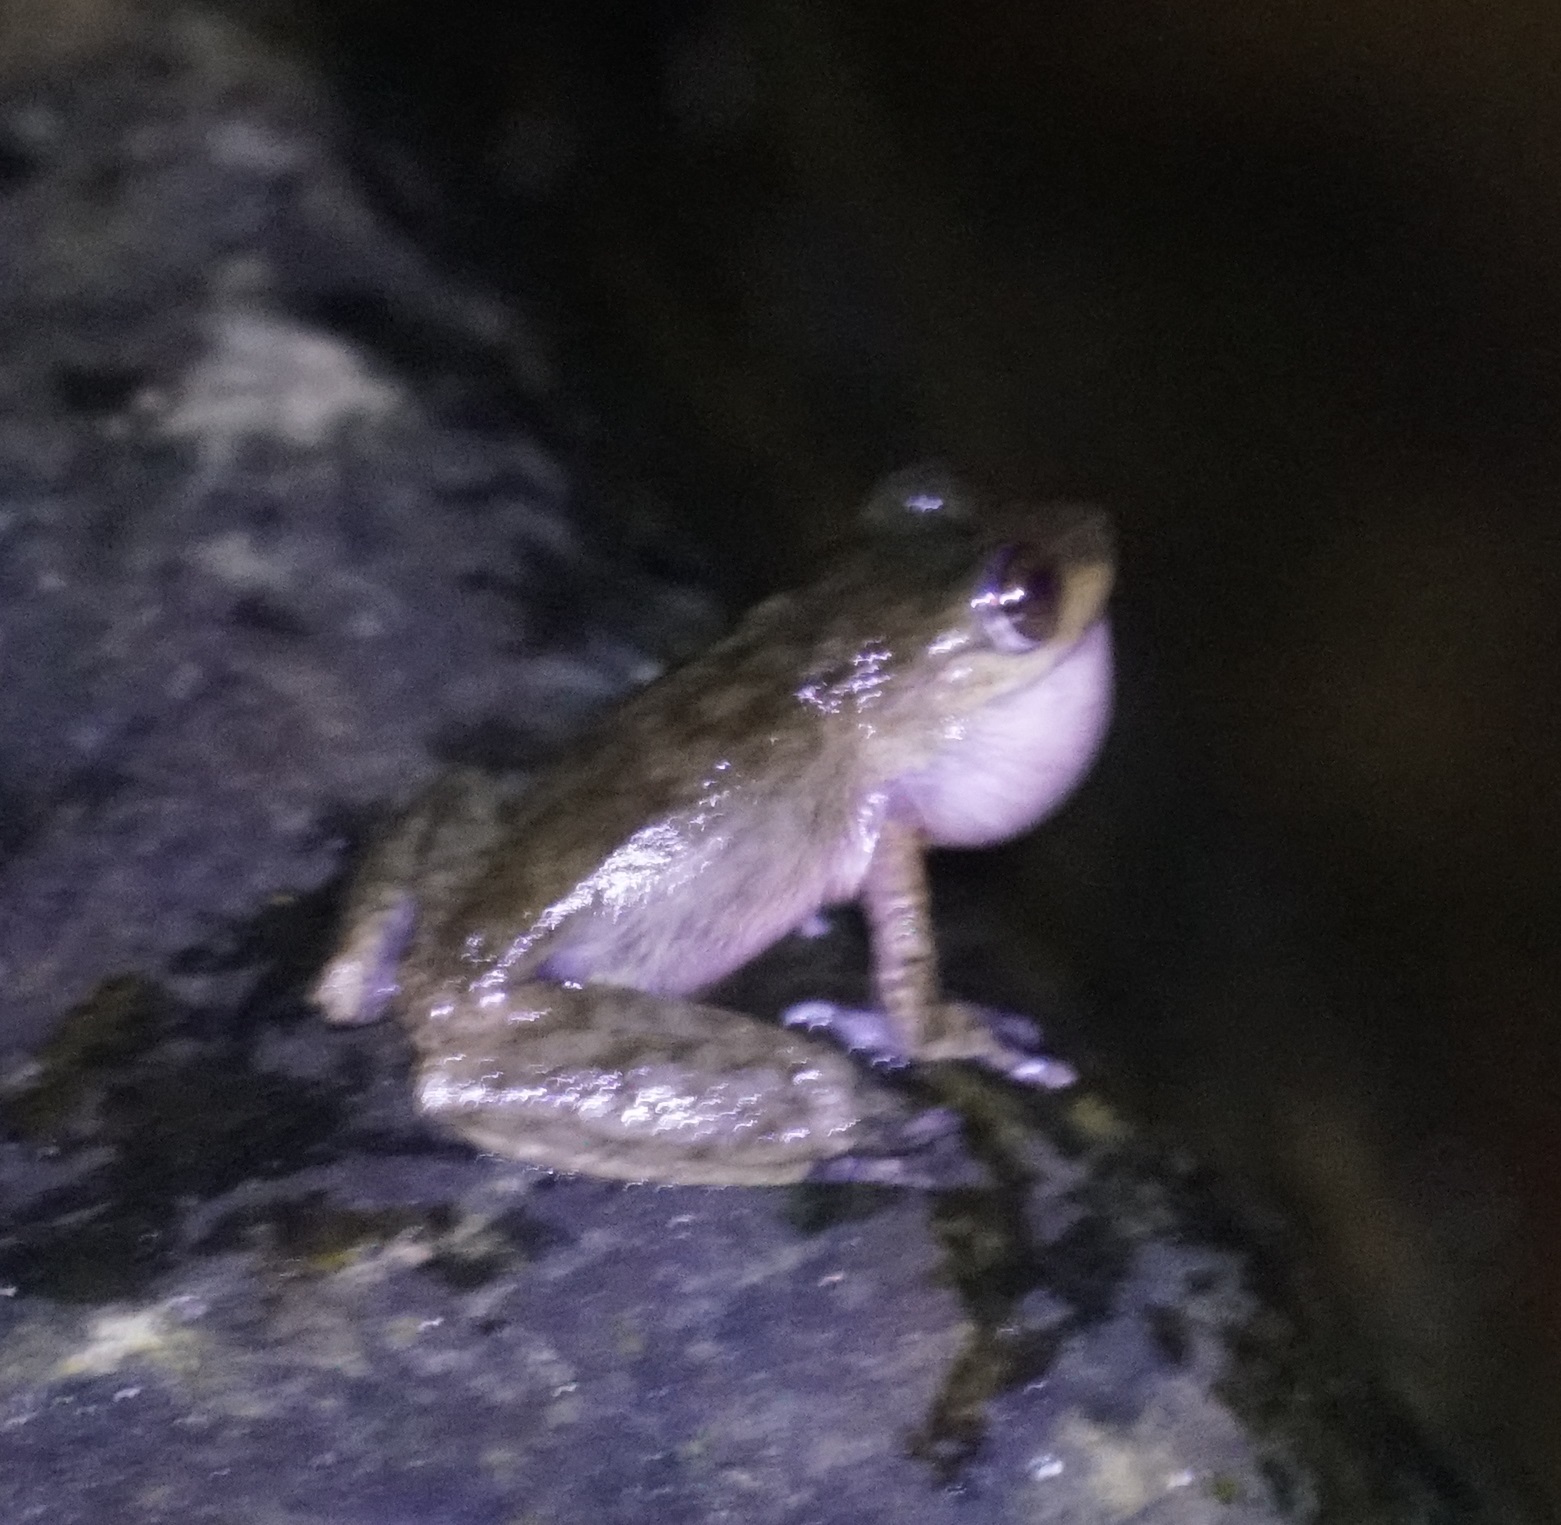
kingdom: Animalia
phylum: Chordata
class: Amphibia
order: Anura
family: Pelodryadidae
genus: Ranoidea
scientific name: Ranoidea rheocola
